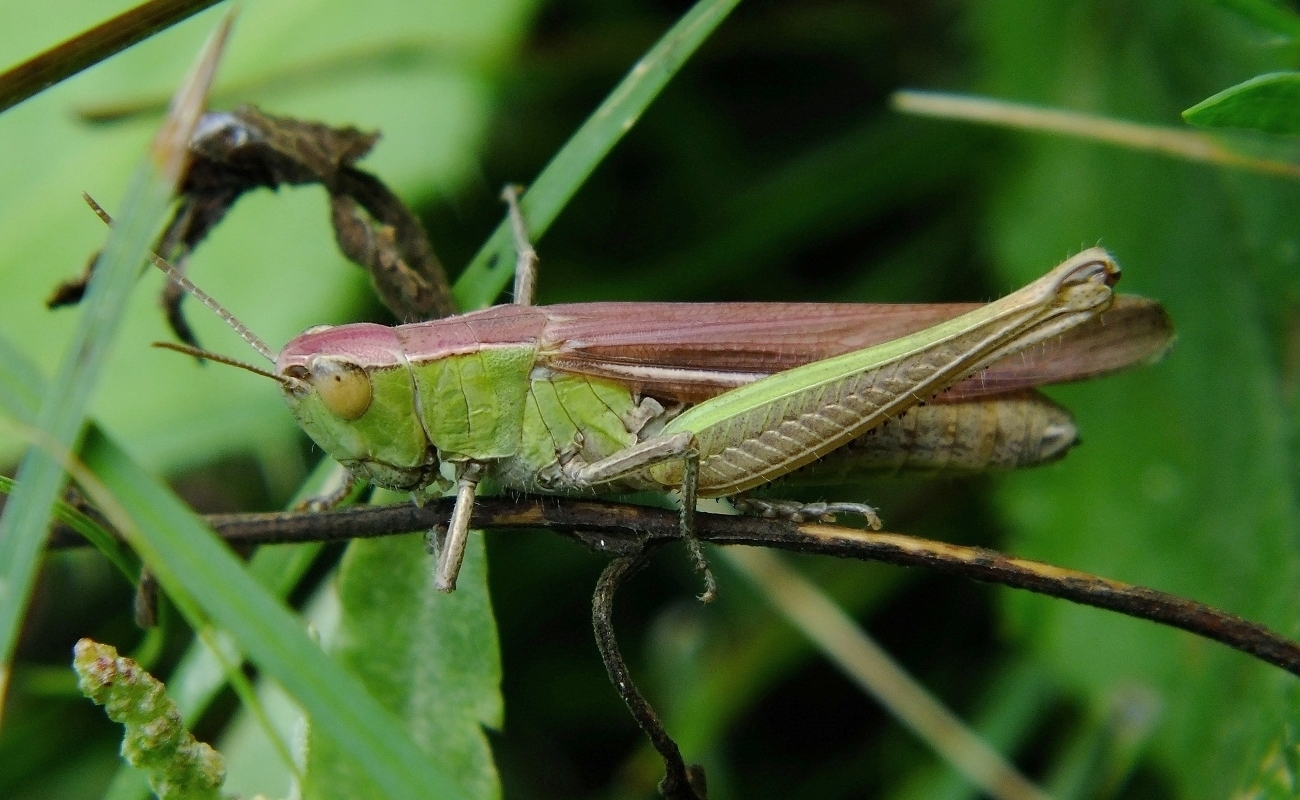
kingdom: Animalia
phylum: Arthropoda
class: Insecta
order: Orthoptera
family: Acrididae
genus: Chorthippus
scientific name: Chorthippus dichrous
